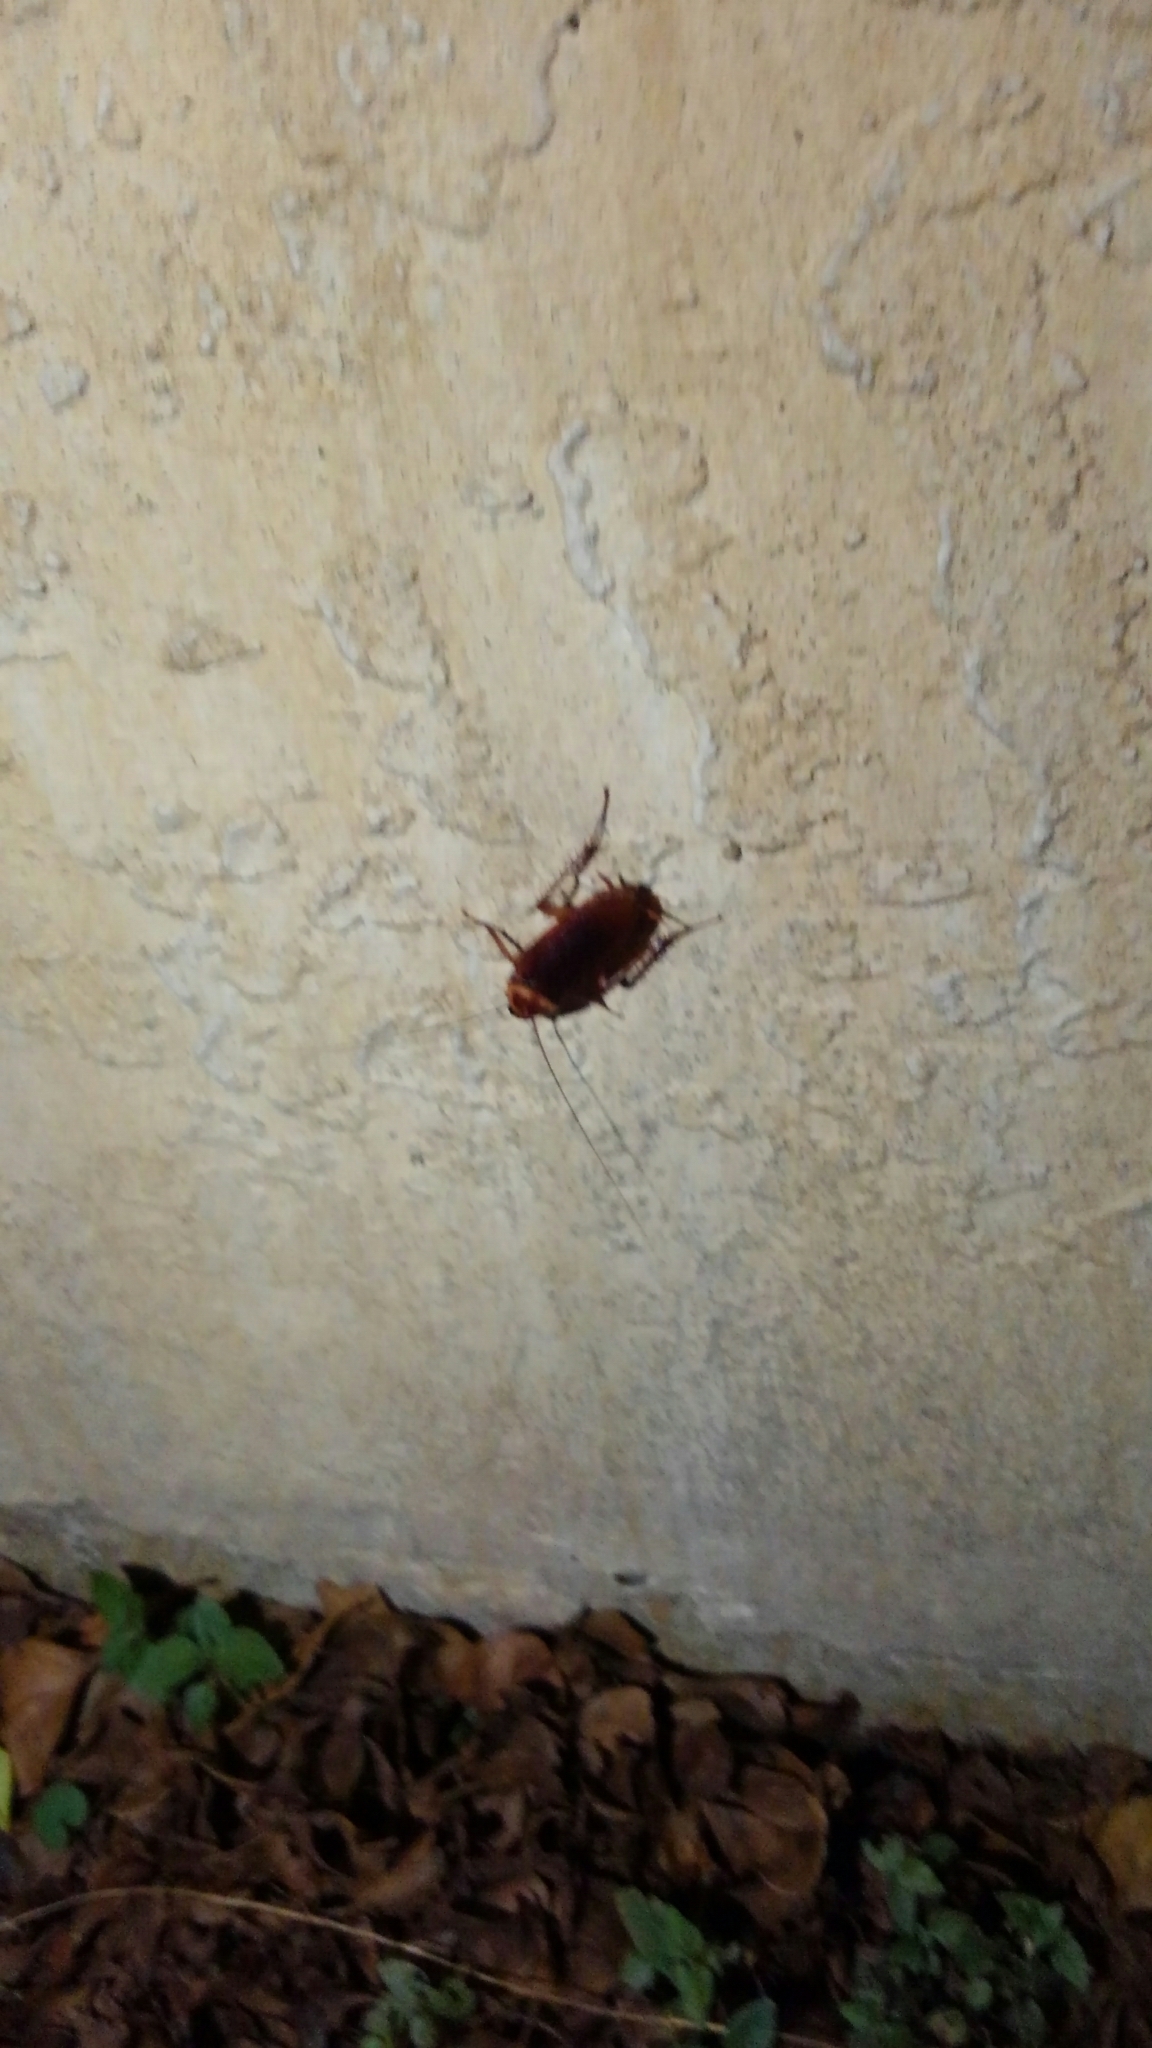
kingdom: Animalia
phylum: Arthropoda
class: Insecta
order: Blattodea
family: Blattidae
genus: Periplaneta
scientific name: Periplaneta americana
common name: American cockroach
